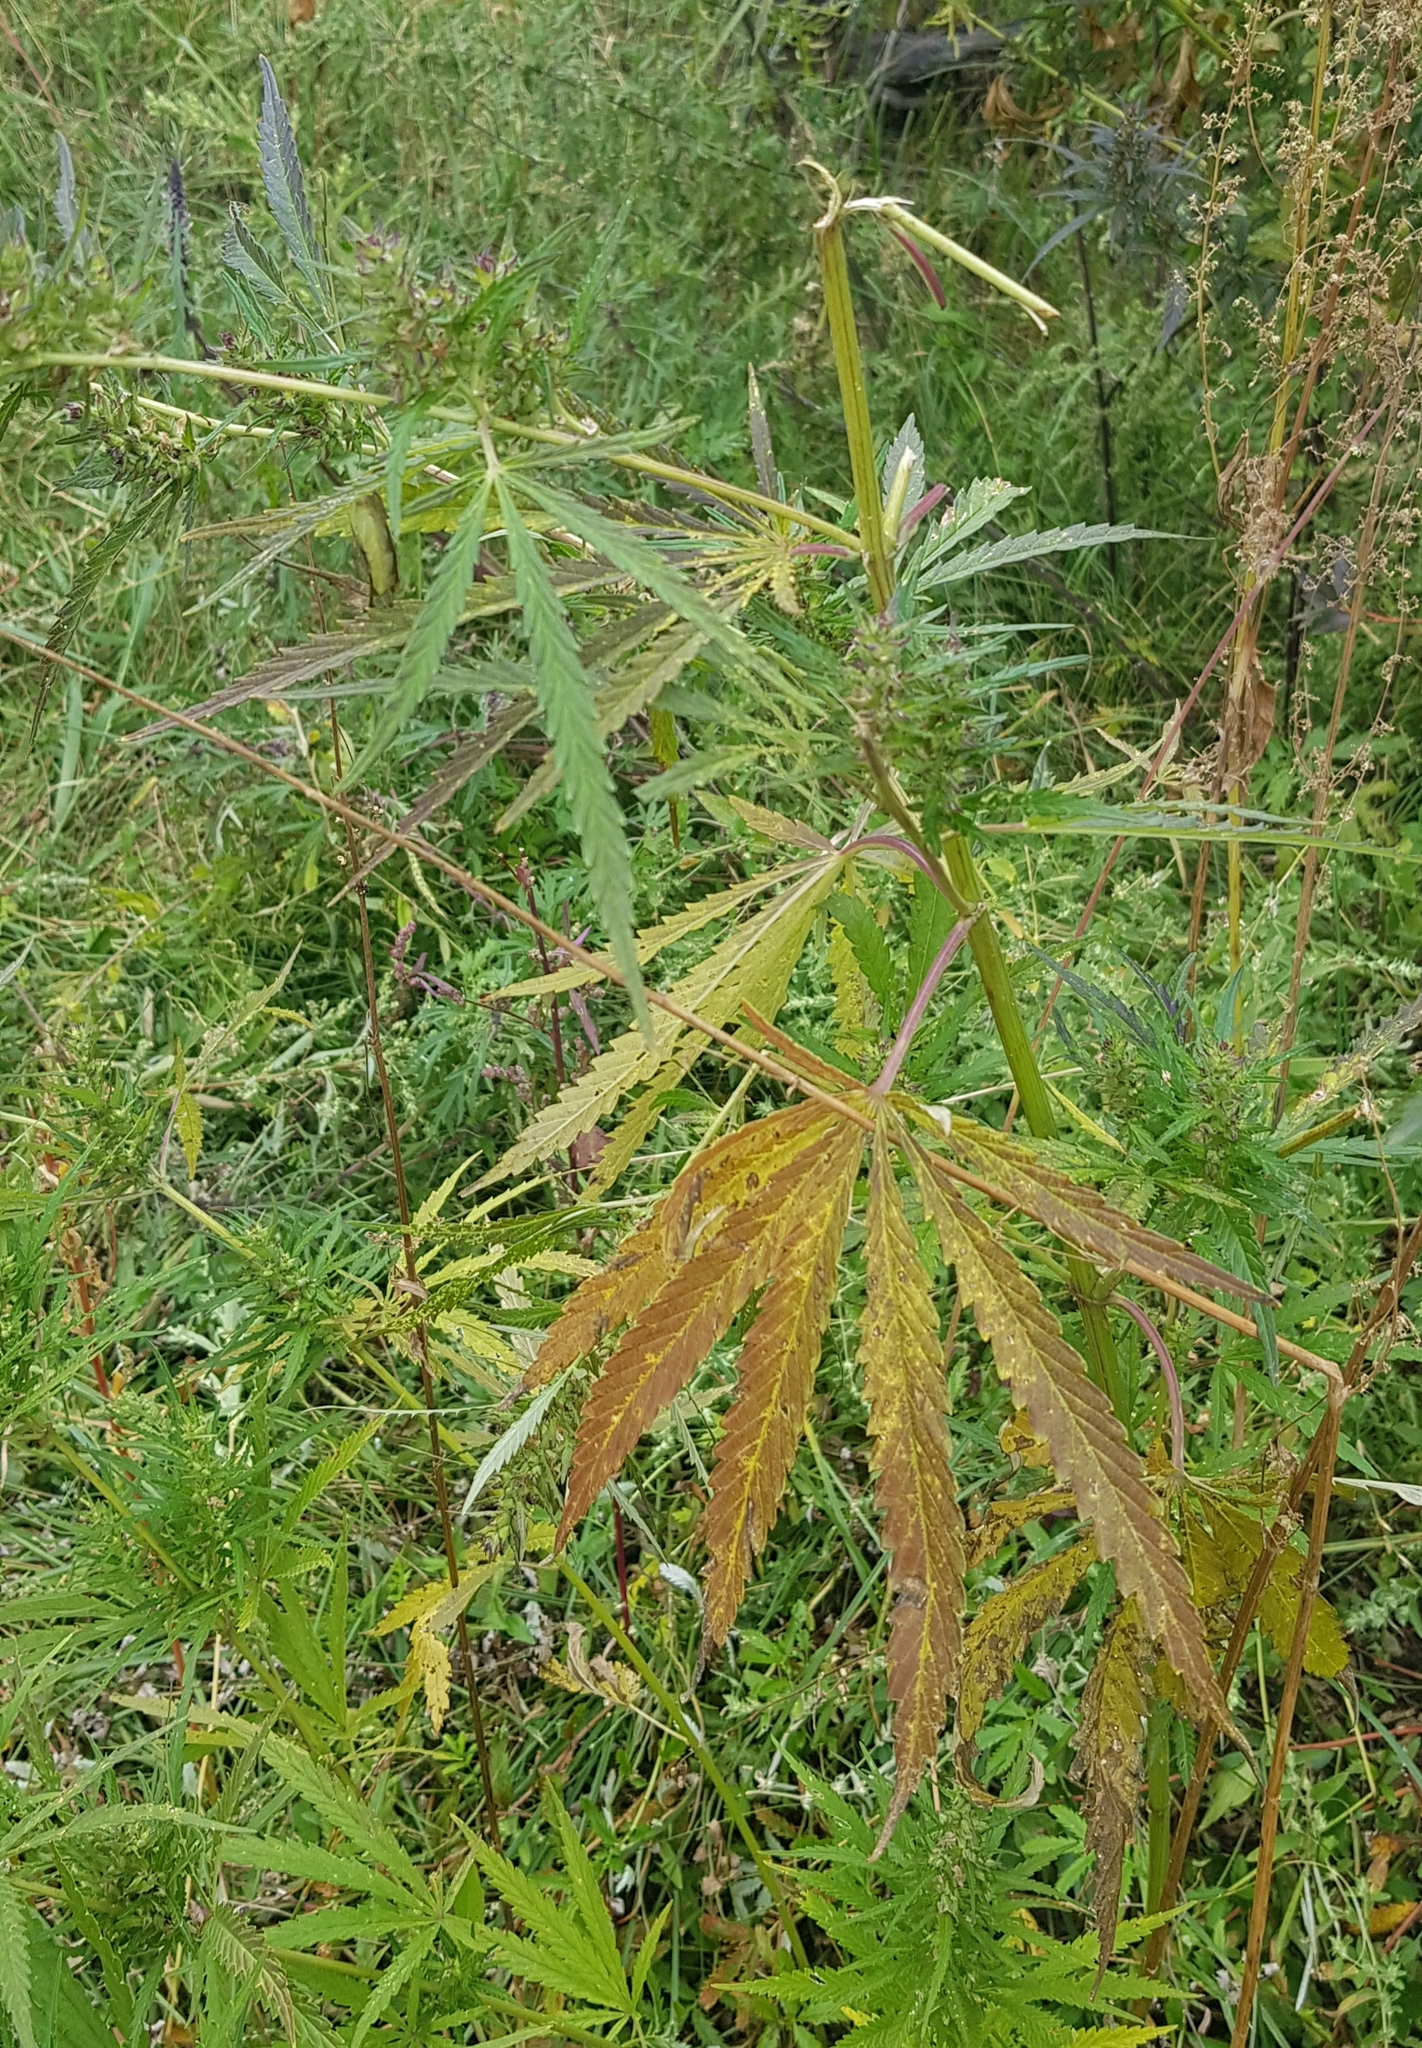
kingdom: Plantae
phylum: Tracheophyta
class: Magnoliopsida
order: Rosales
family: Cannabaceae
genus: Cannabis
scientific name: Cannabis sativa
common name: Hemp
